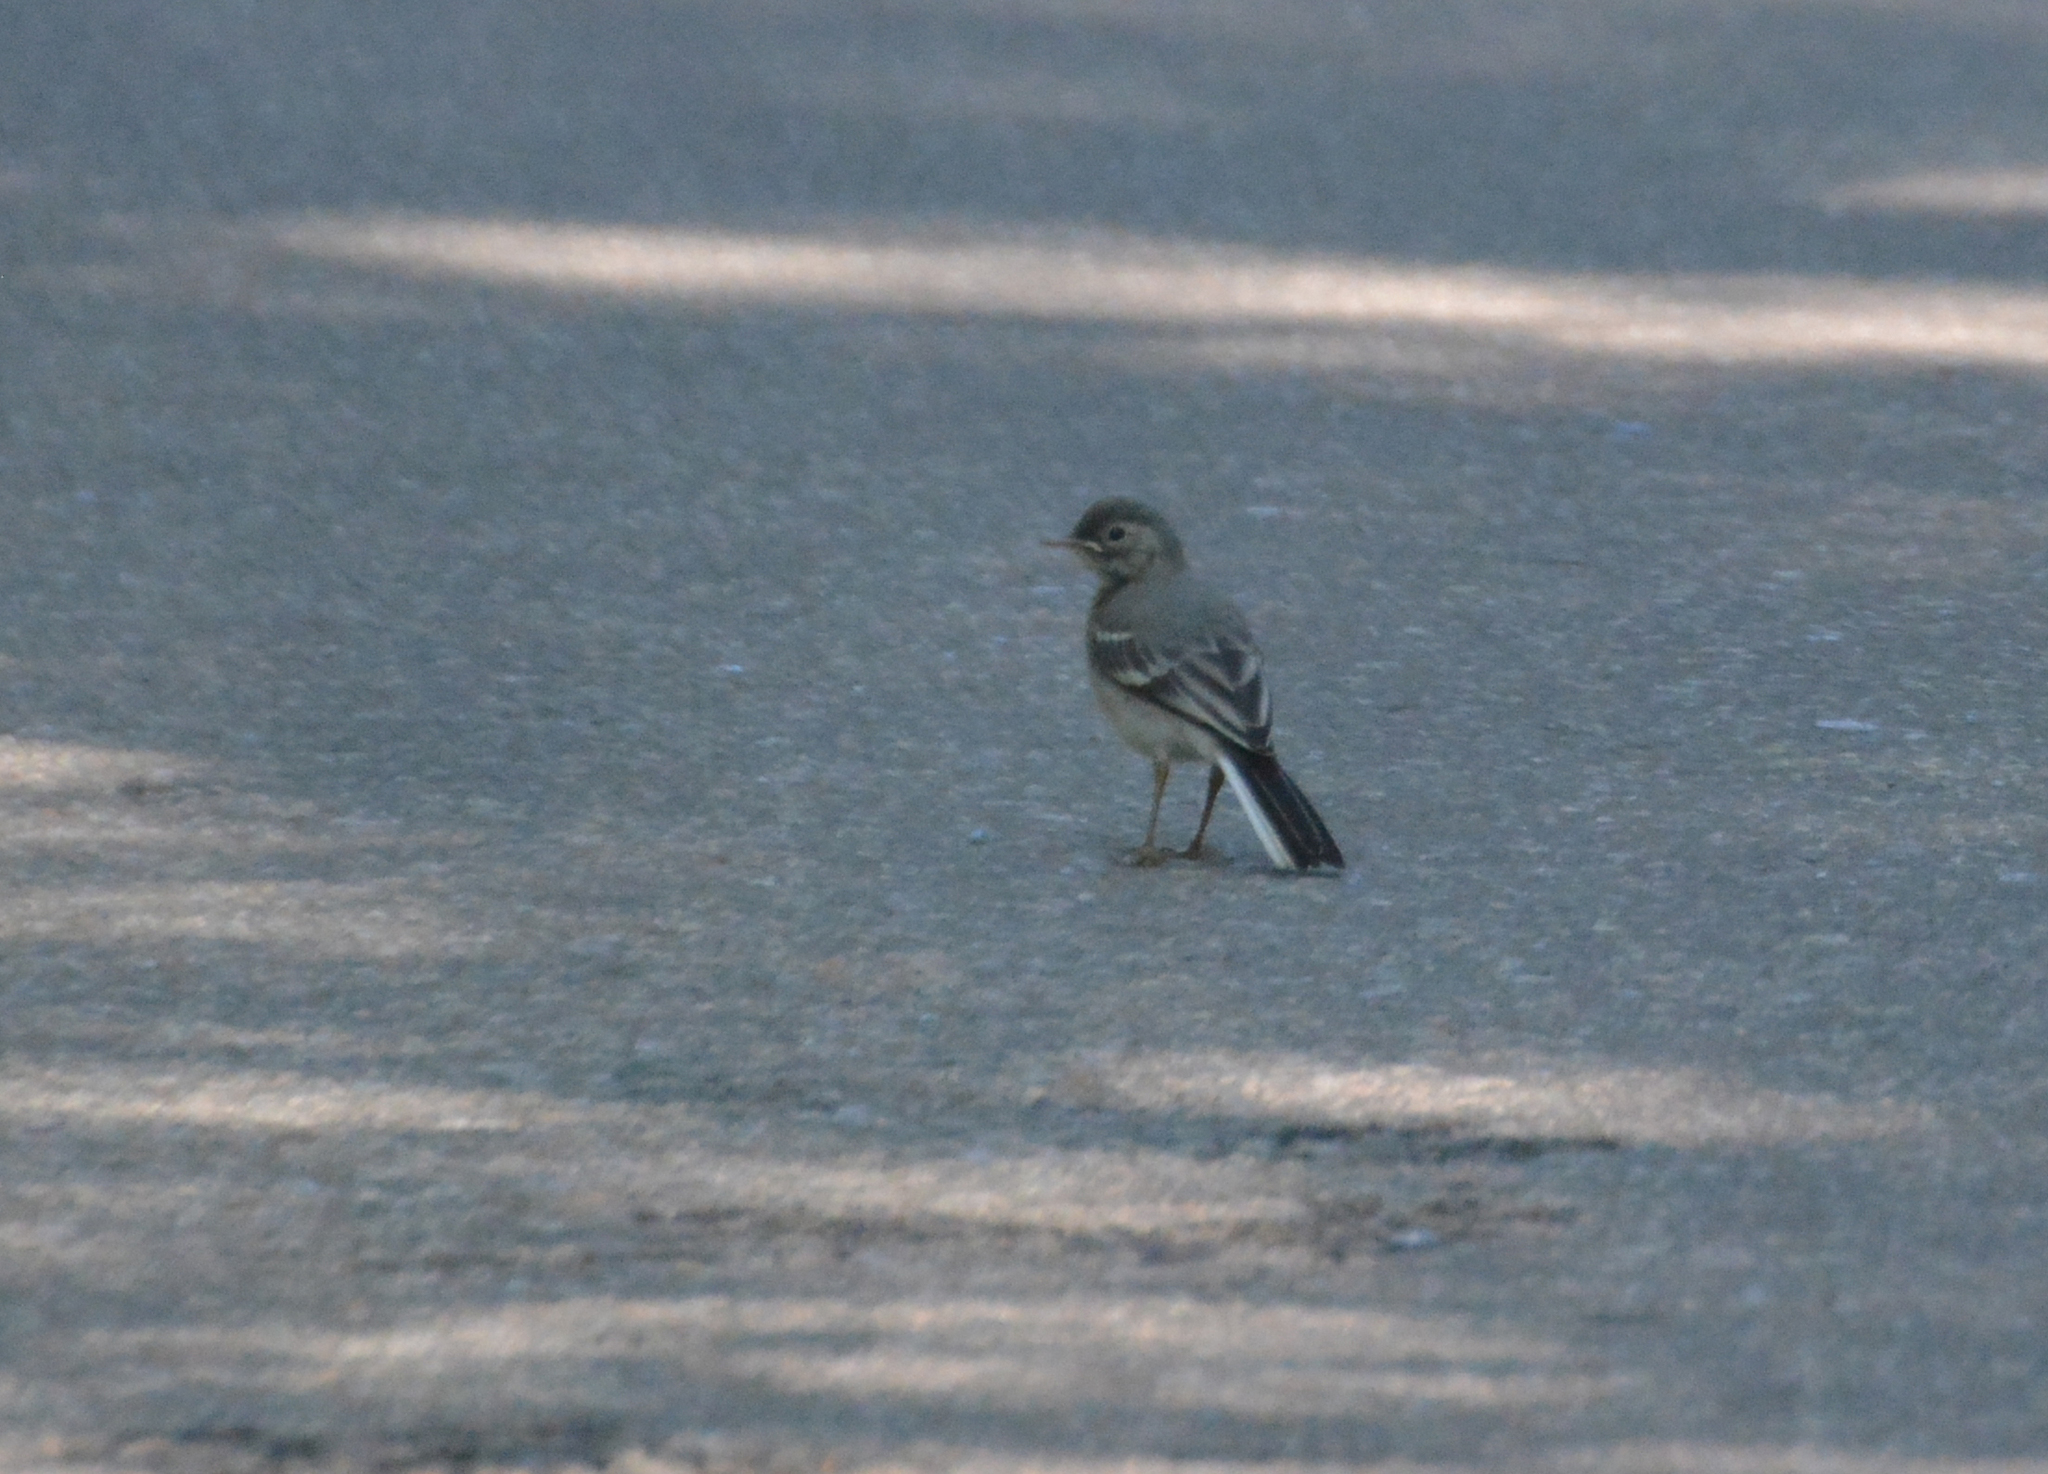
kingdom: Animalia
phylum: Chordata
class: Aves
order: Passeriformes
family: Motacillidae
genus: Motacilla
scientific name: Motacilla alba
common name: White wagtail
